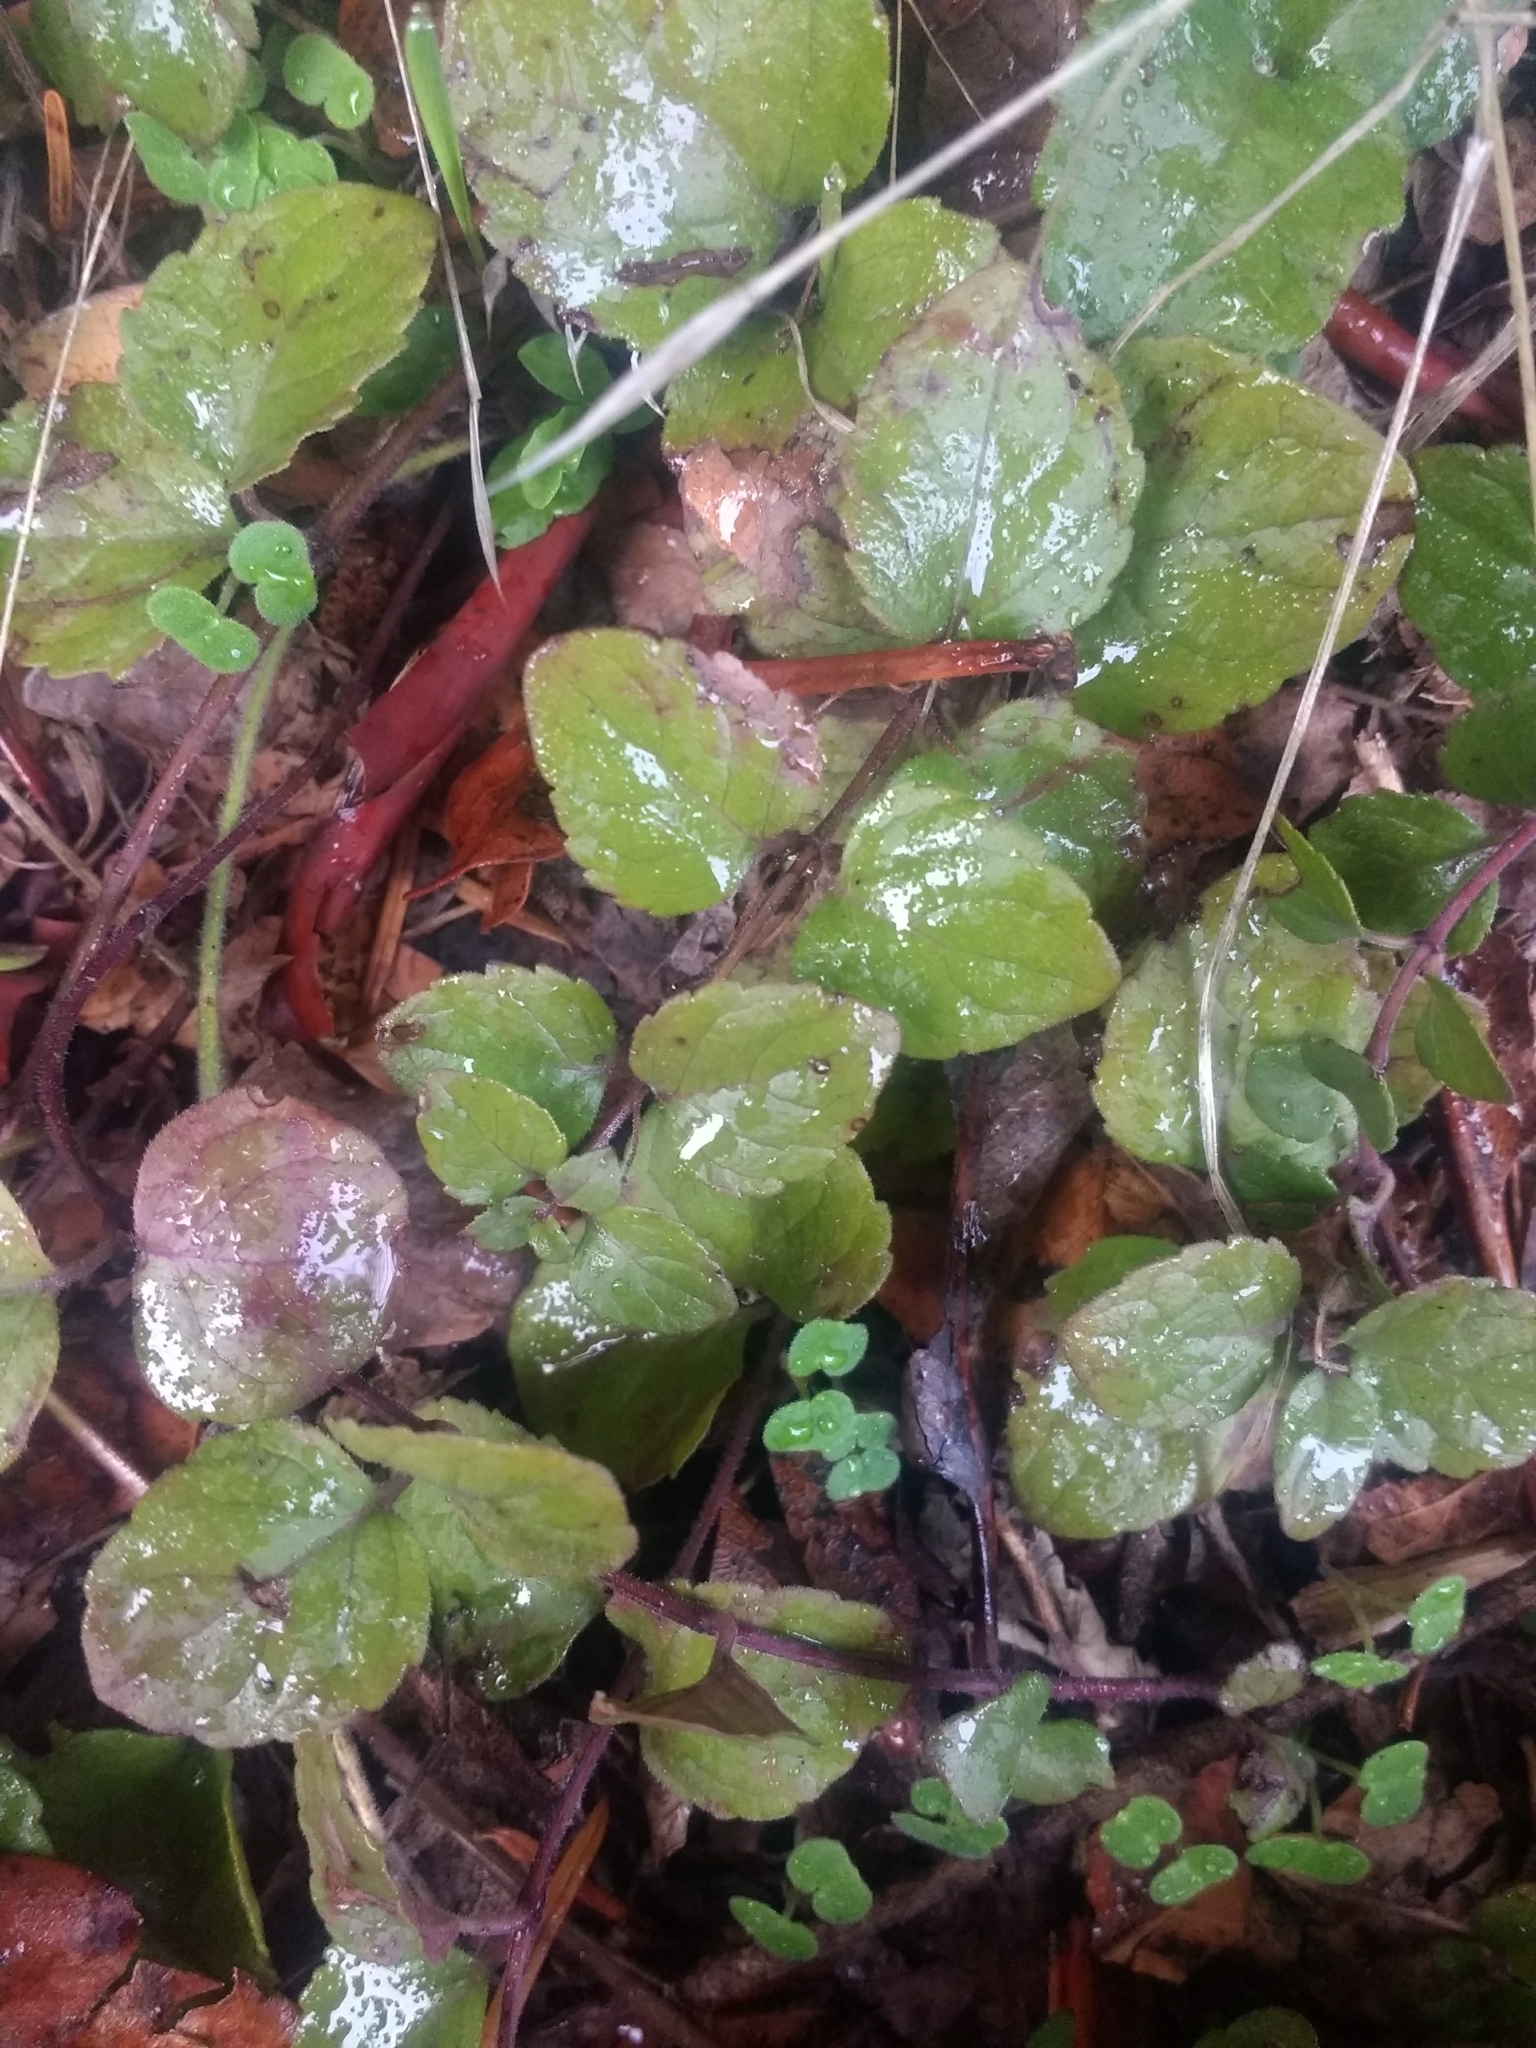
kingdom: Plantae
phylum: Tracheophyta
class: Magnoliopsida
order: Lamiales
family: Lamiaceae
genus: Micromeria
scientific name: Micromeria douglasii
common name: Yerba buena
